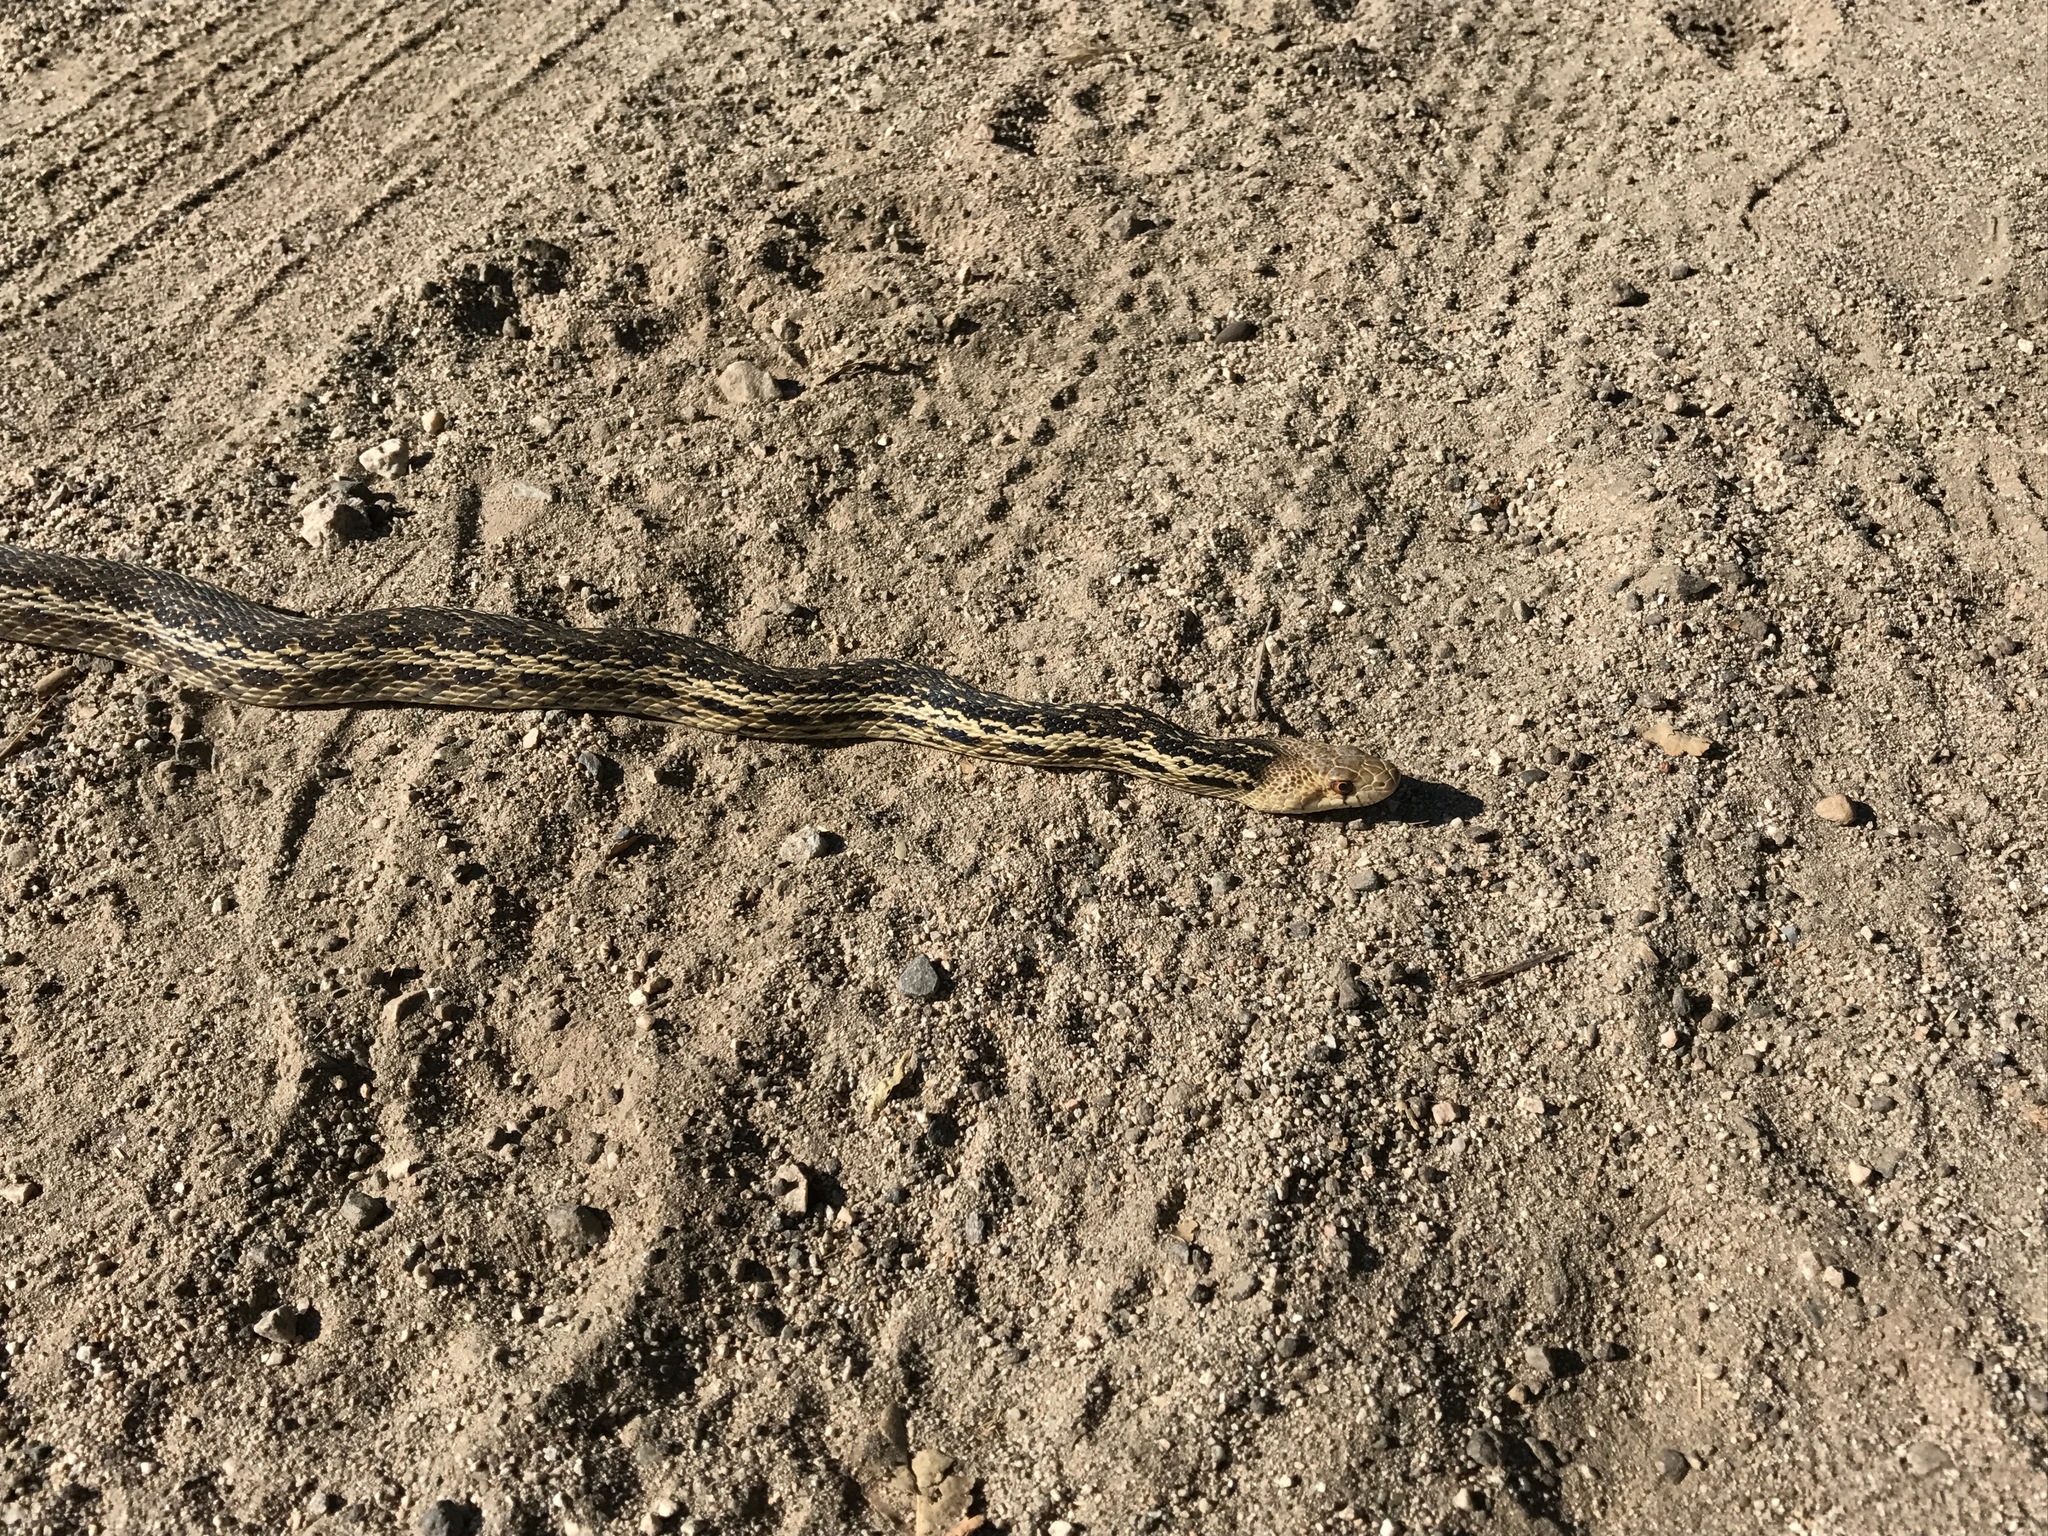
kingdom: Animalia
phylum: Chordata
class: Squamata
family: Colubridae
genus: Pituophis
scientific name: Pituophis catenifer
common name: Gopher snake
